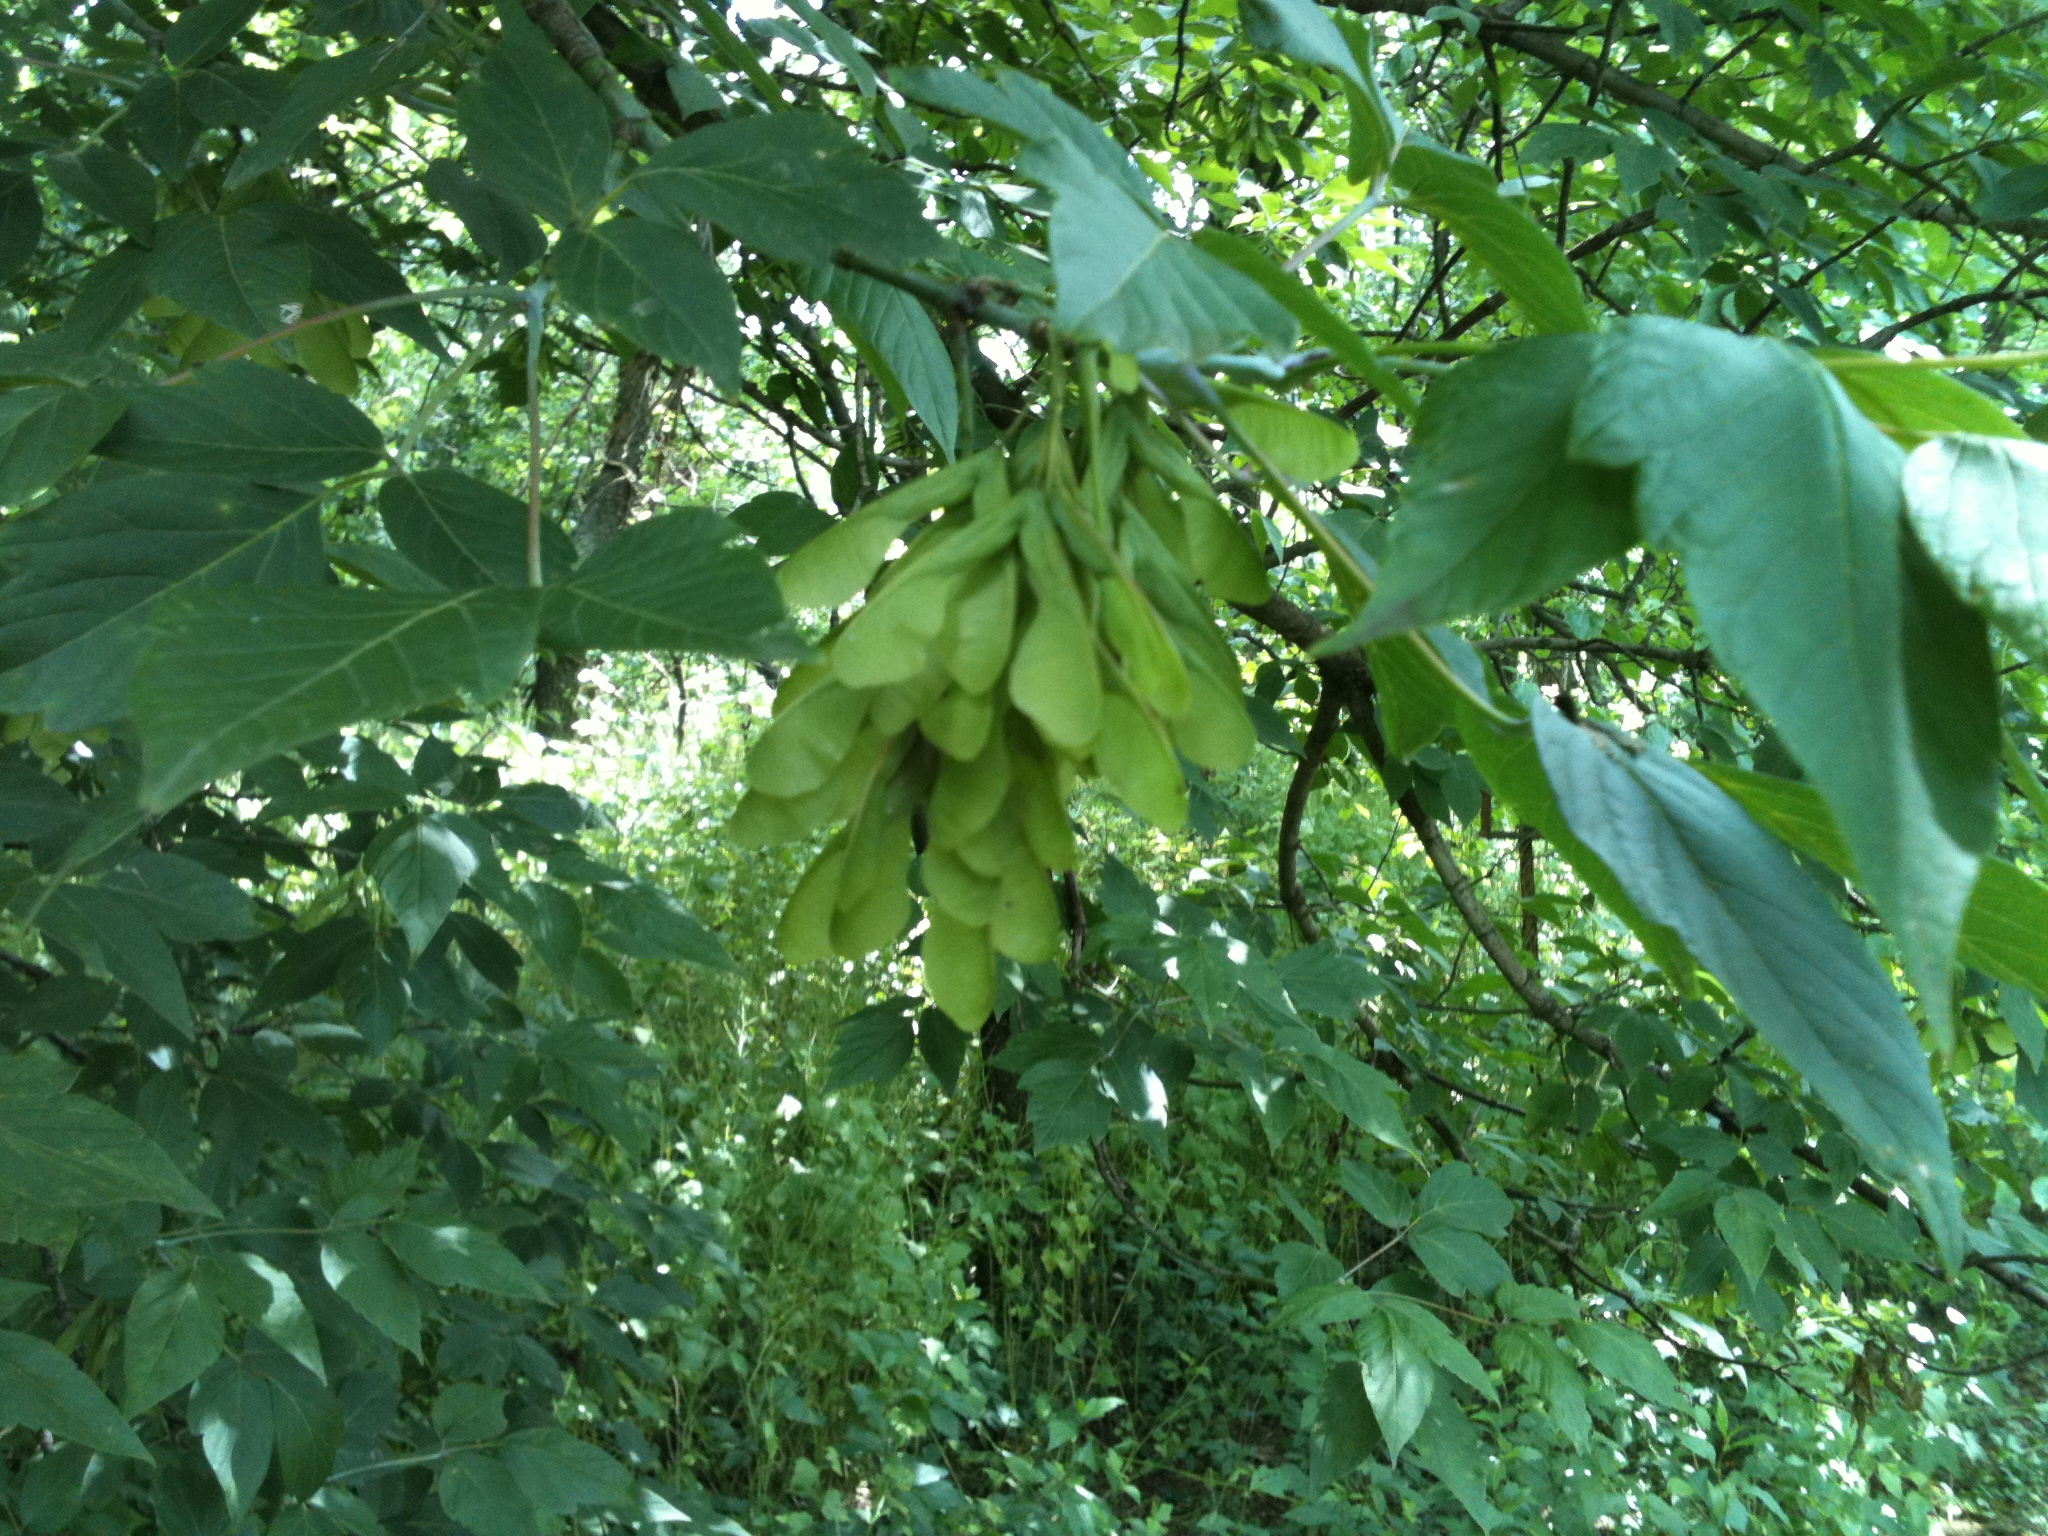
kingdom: Plantae
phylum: Tracheophyta
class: Magnoliopsida
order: Sapindales
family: Sapindaceae
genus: Acer
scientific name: Acer negundo
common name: Ashleaf maple
